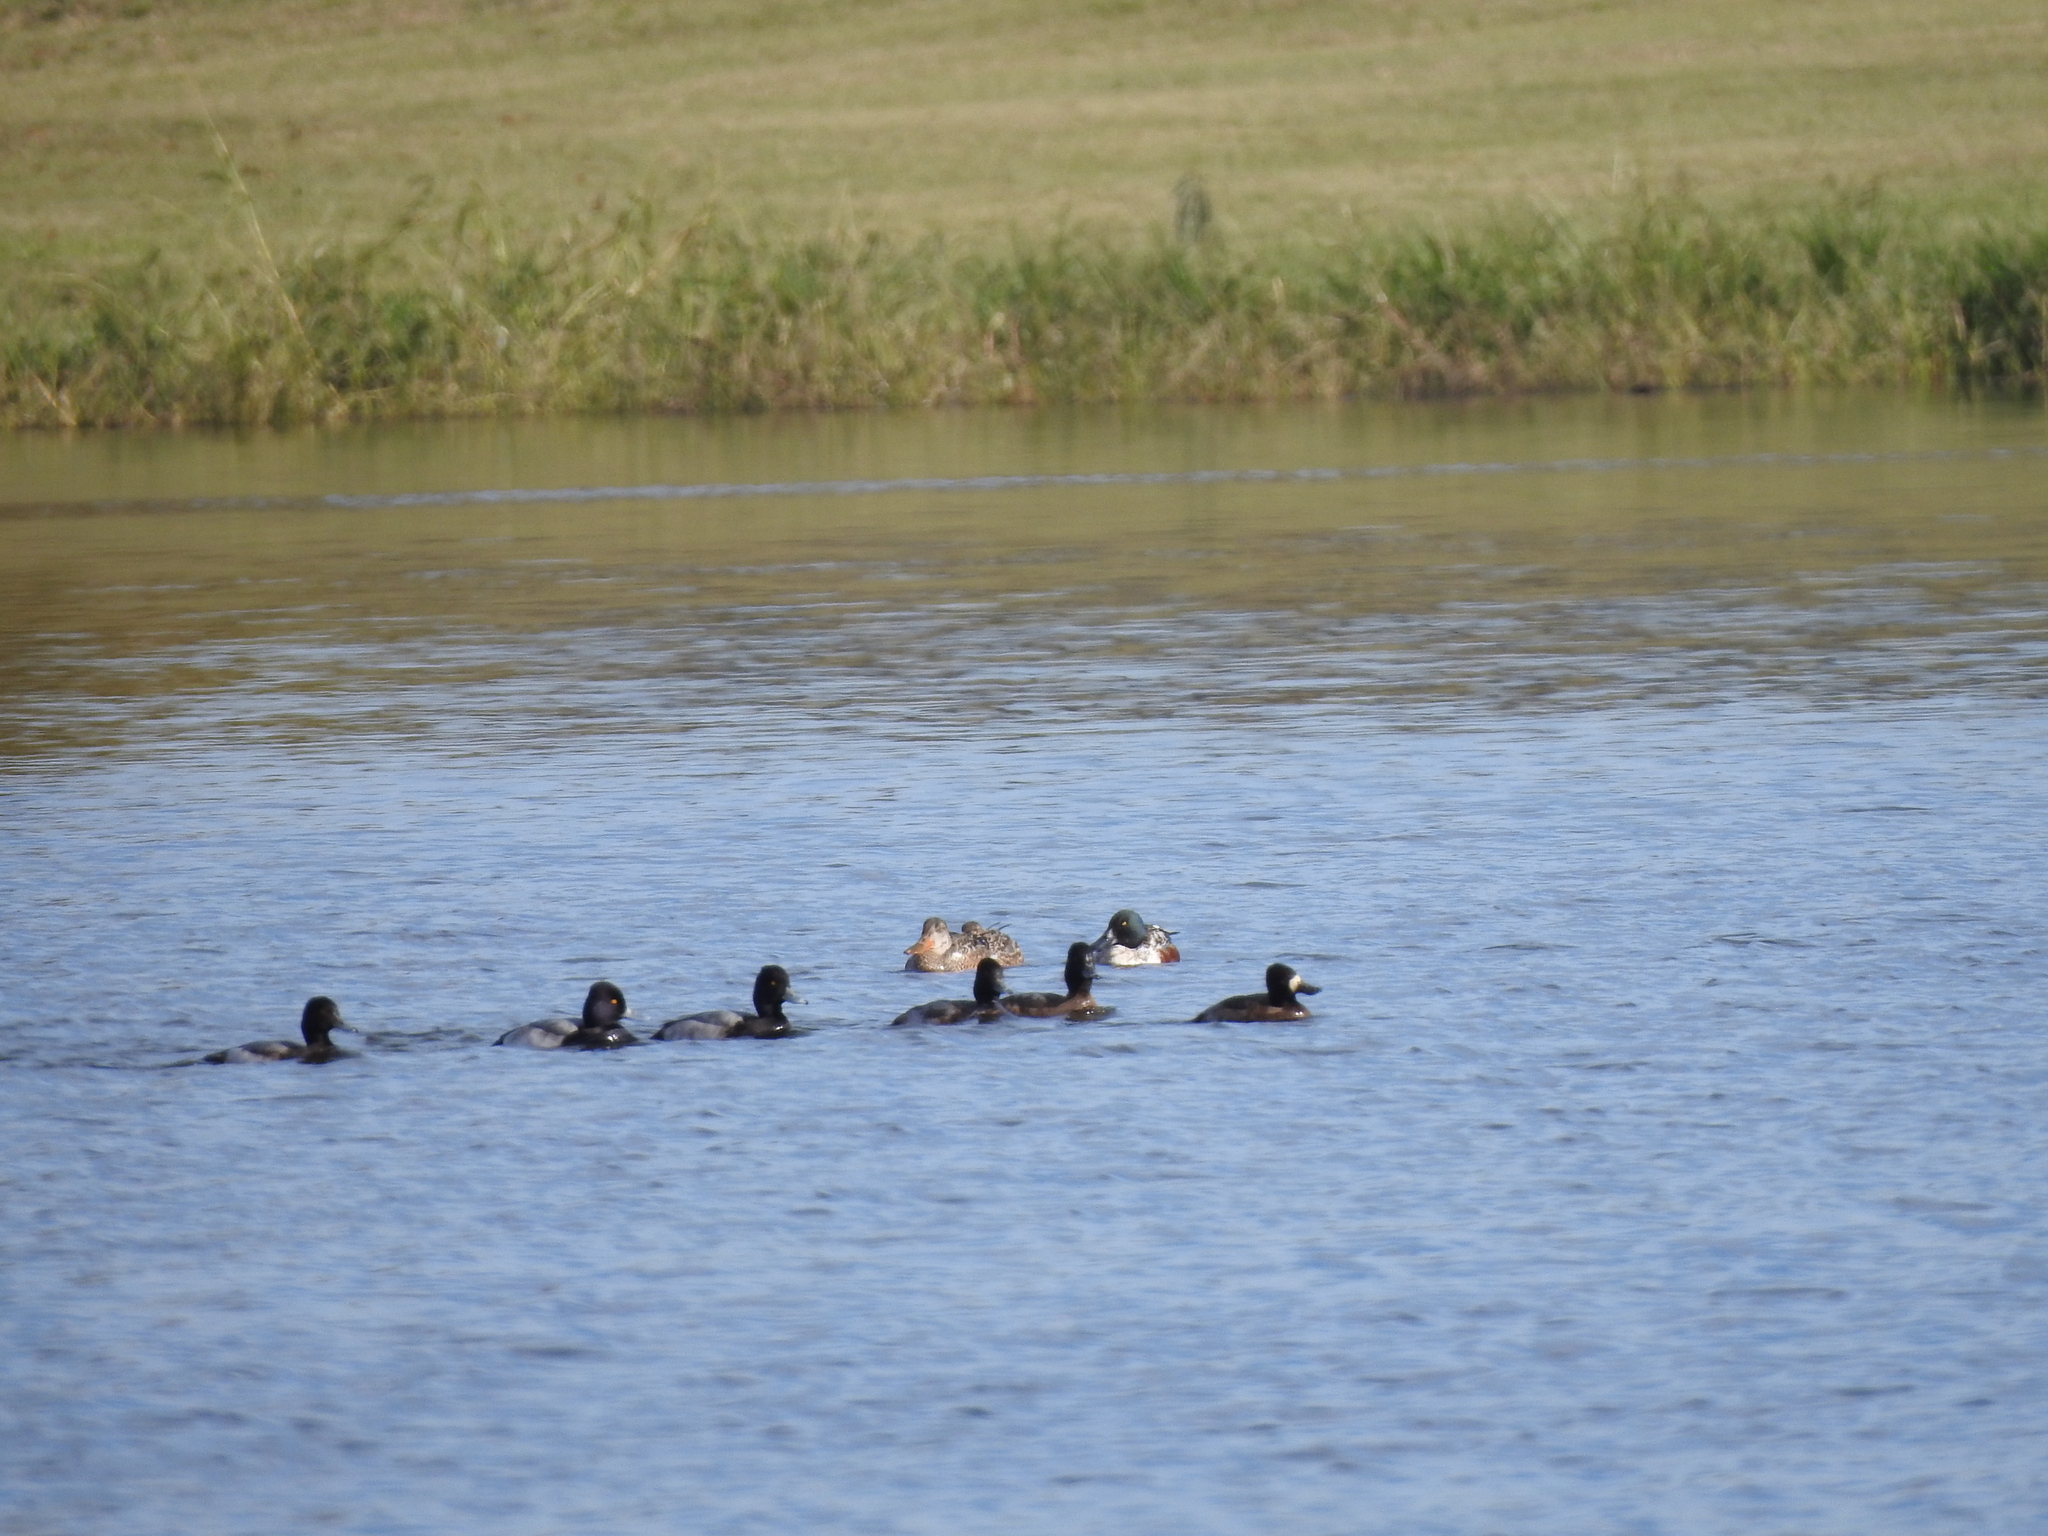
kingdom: Animalia
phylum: Chordata
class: Aves
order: Anseriformes
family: Anatidae
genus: Spatula
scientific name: Spatula clypeata
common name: Northern shoveler
